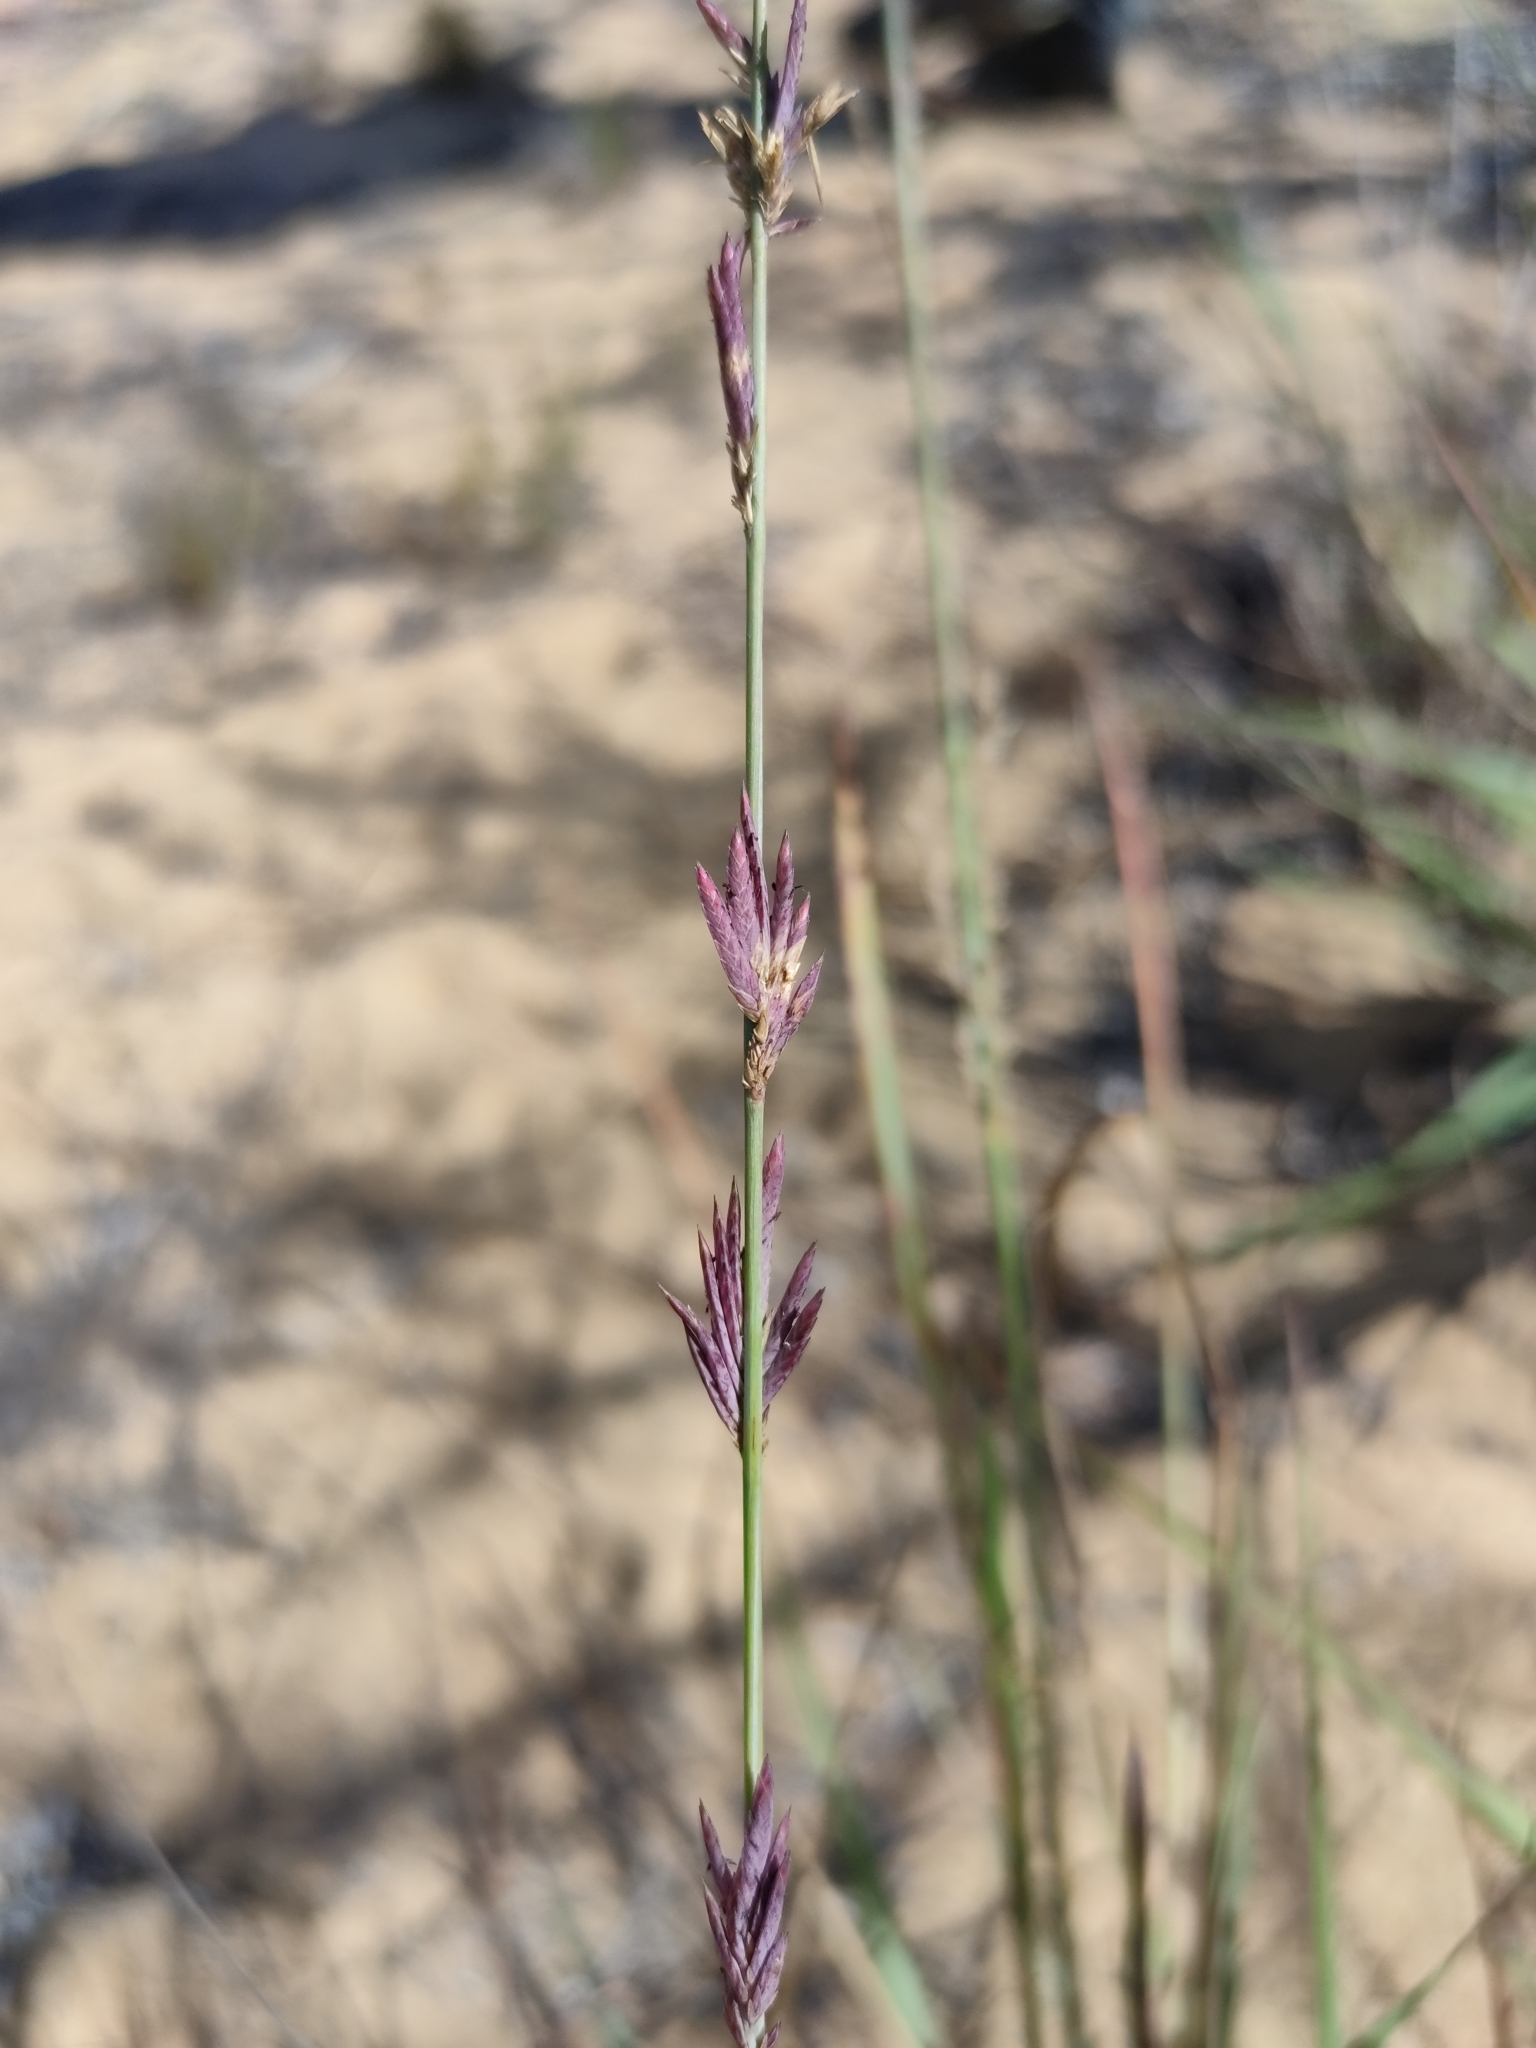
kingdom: Plantae
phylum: Tracheophyta
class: Liliopsida
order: Poales
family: Poaceae
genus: Eragrostis
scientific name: Eragrostis interrupta
